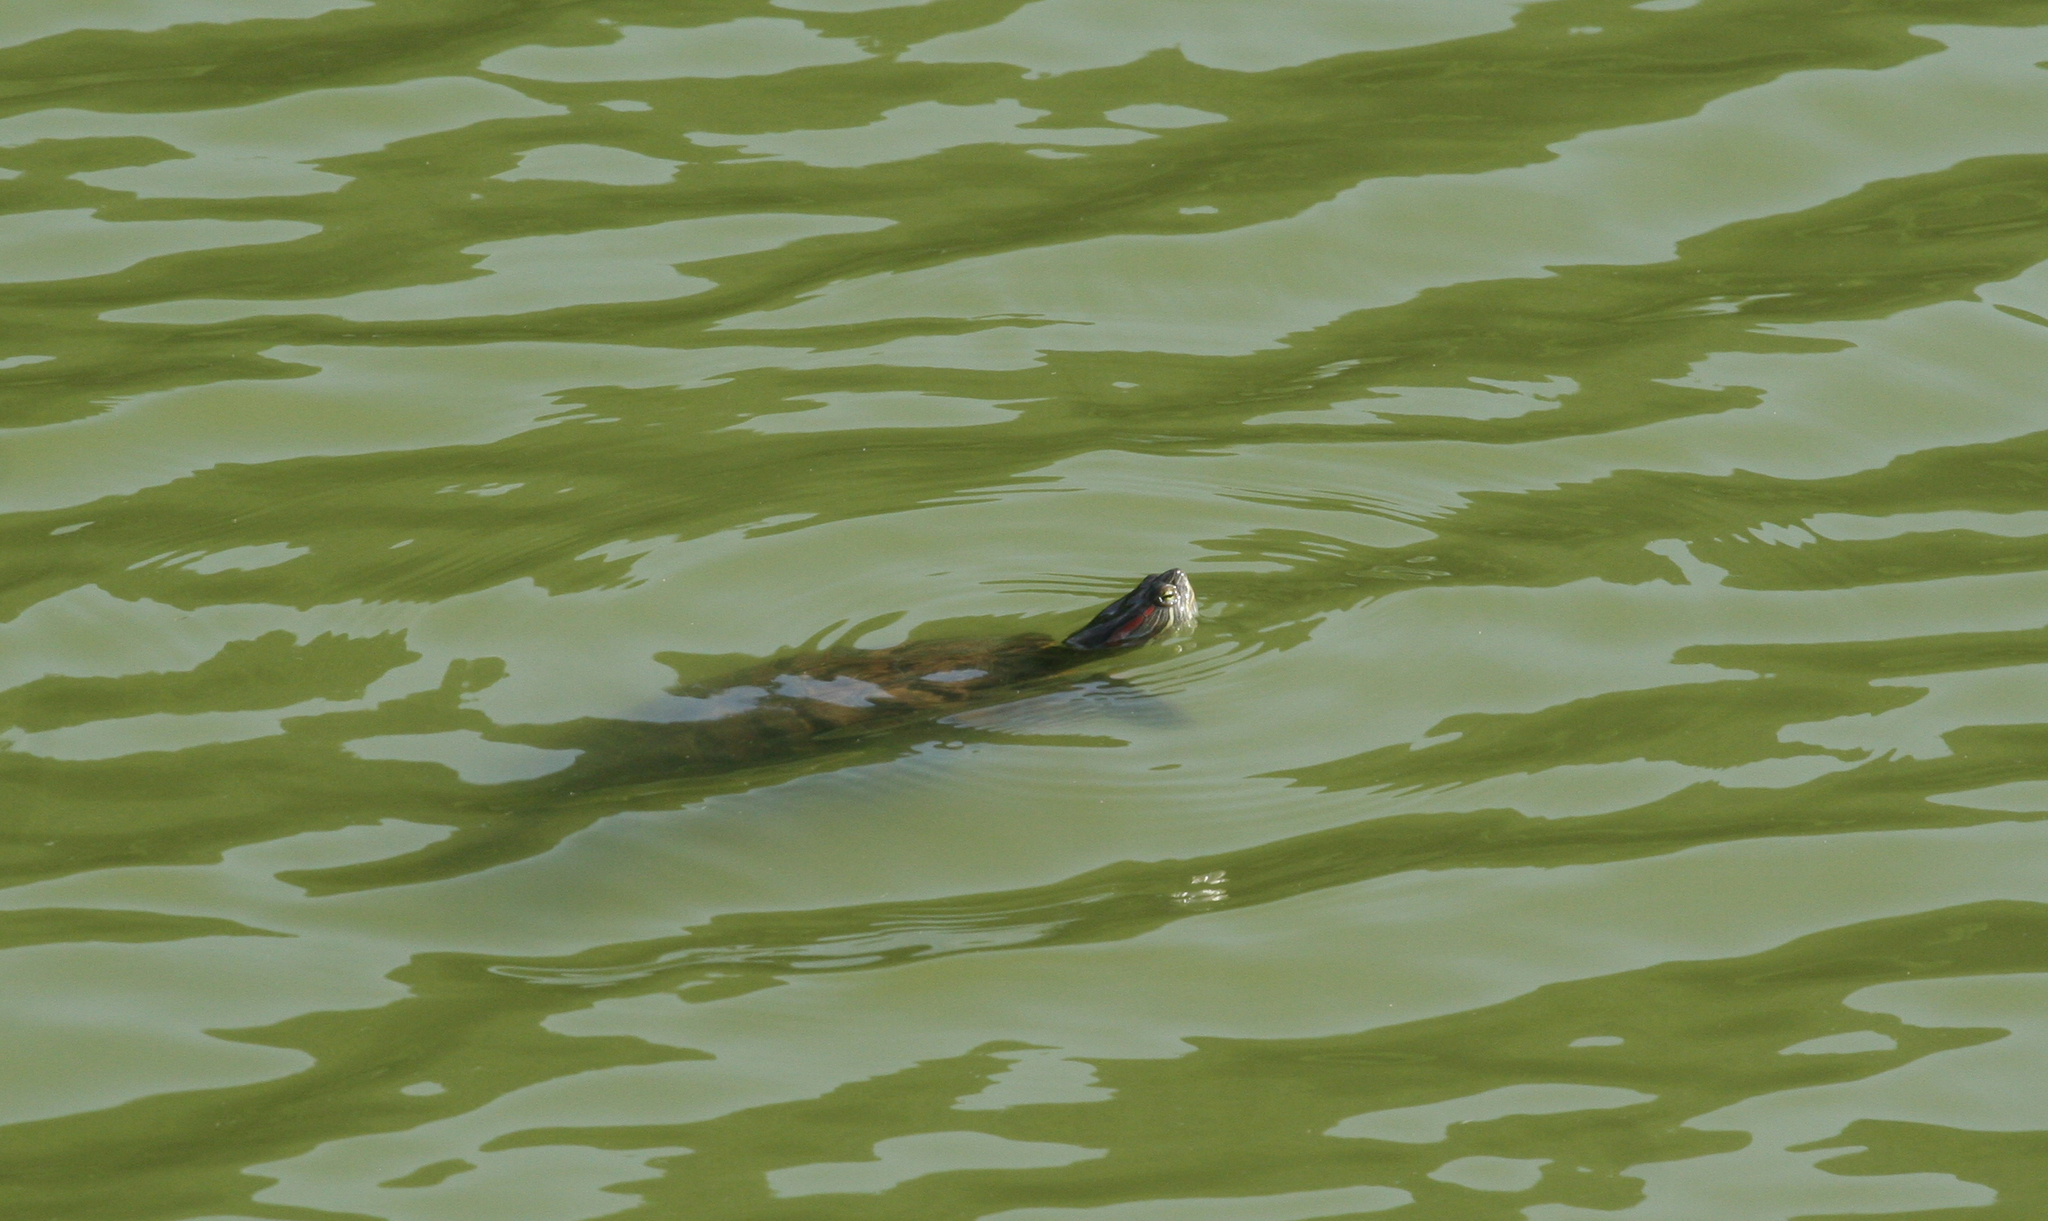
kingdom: Animalia
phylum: Chordata
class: Testudines
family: Emydidae
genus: Trachemys
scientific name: Trachemys scripta
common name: Slider
